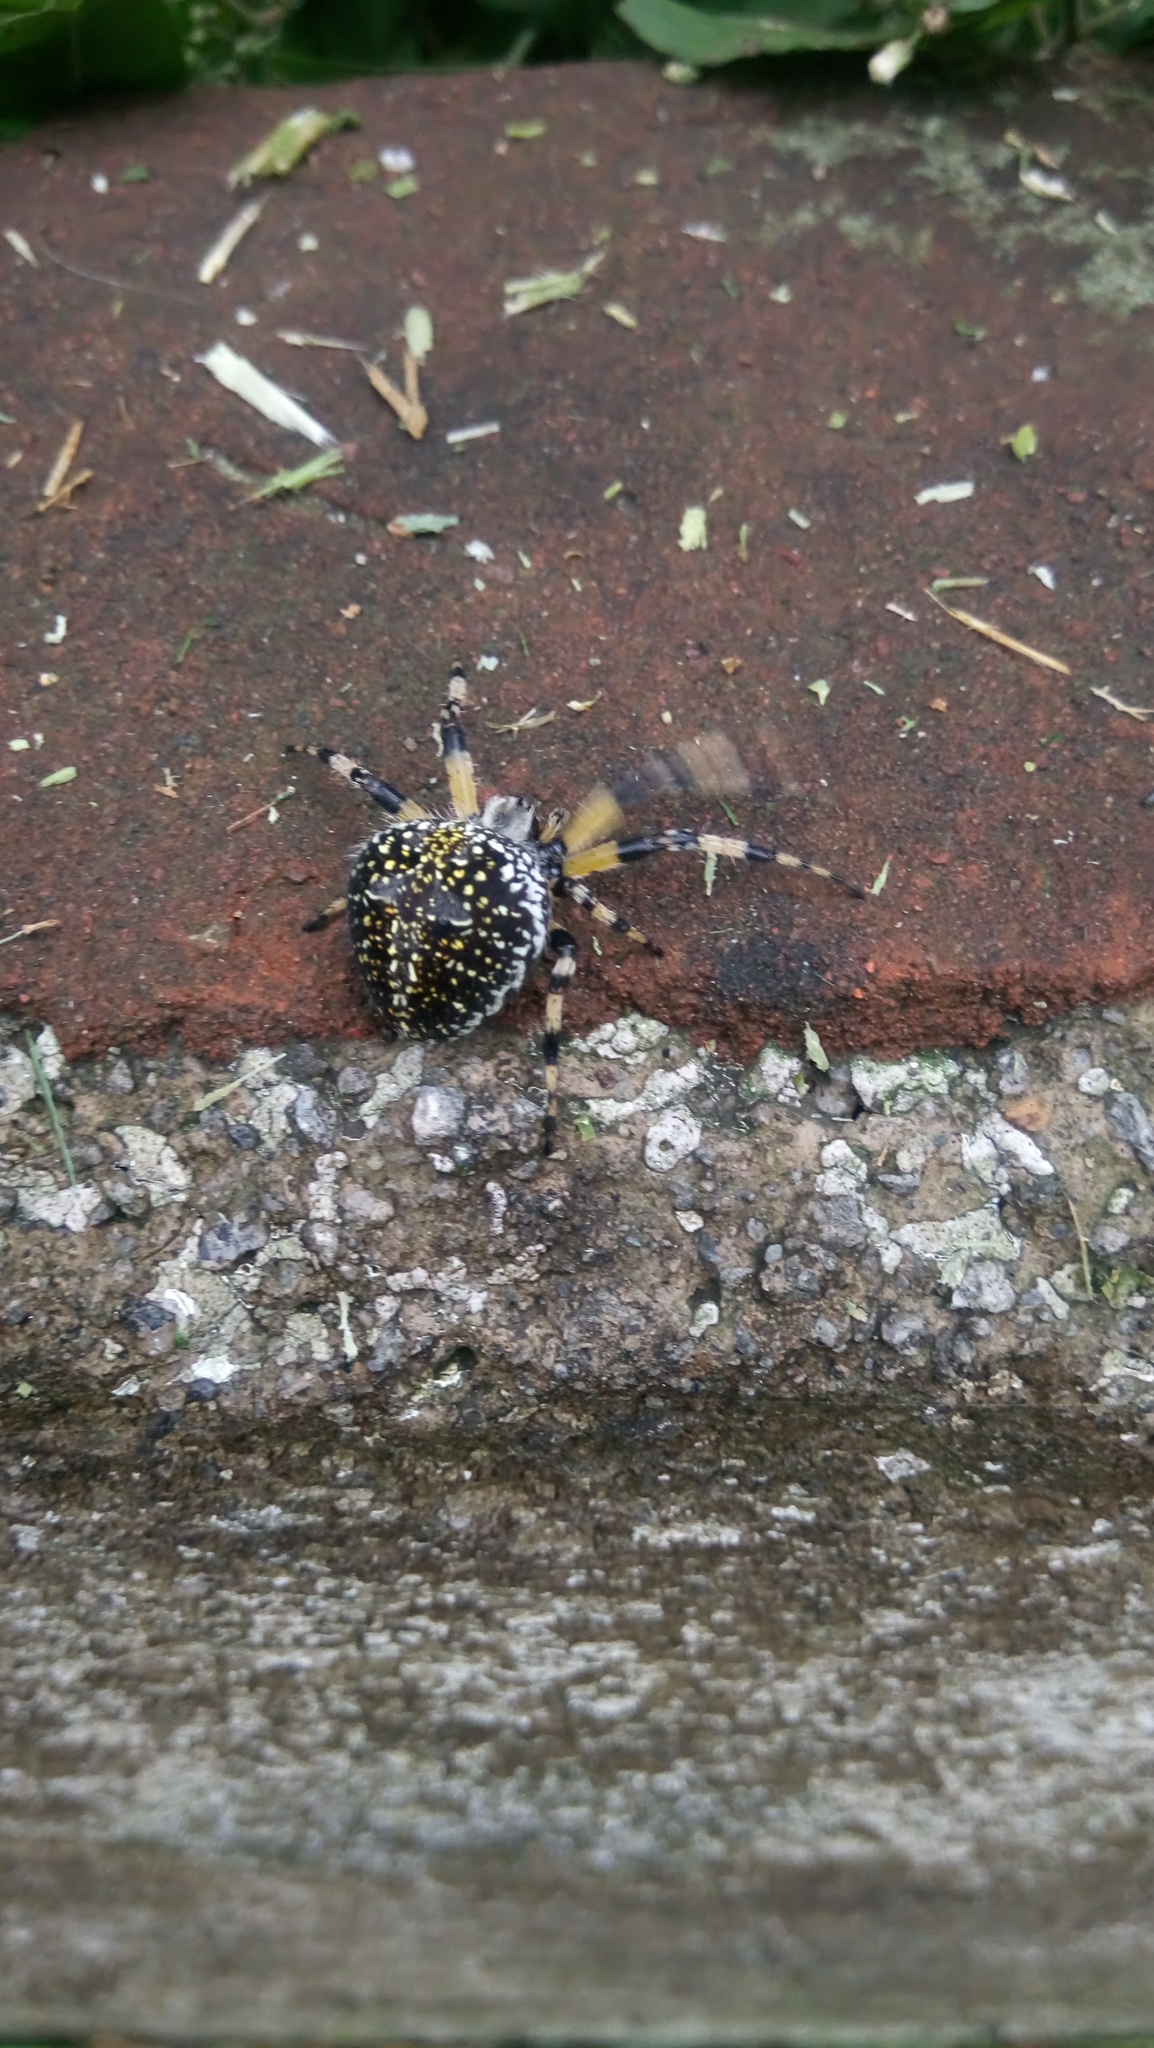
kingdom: Animalia
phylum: Arthropoda
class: Arachnida
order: Araneae
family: Araneidae
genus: Neoscona
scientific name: Neoscona orizabensis
